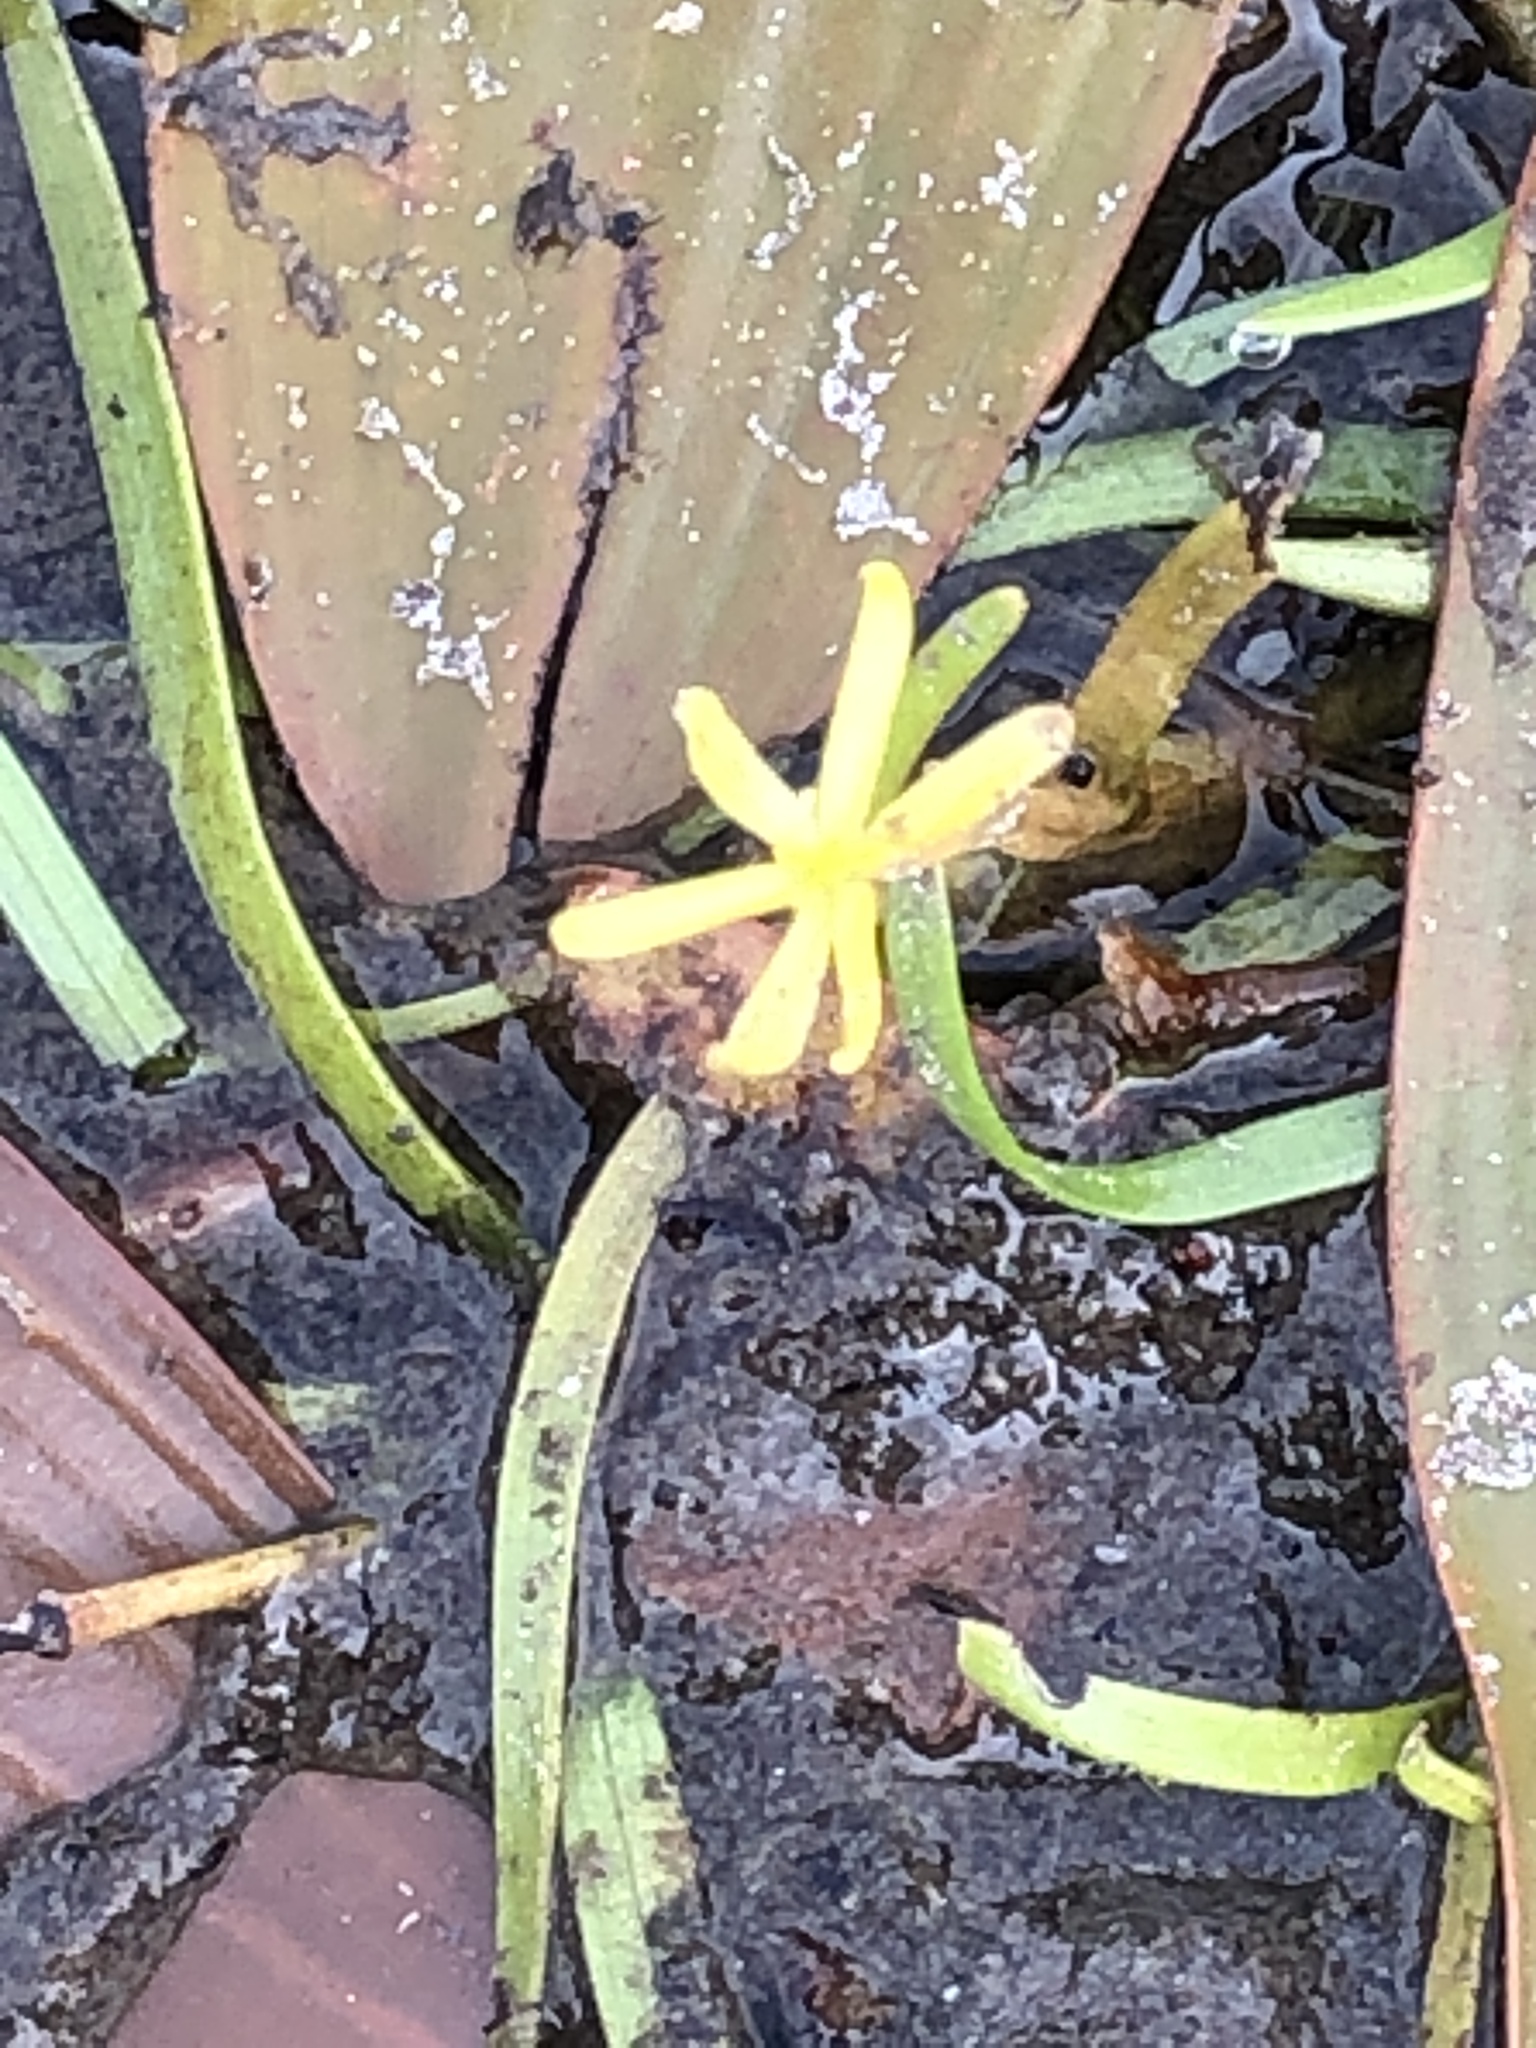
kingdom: Plantae
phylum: Tracheophyta
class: Liliopsida
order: Commelinales
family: Pontederiaceae
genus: Heteranthera
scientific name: Heteranthera dubia
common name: Grass-leaved mud plantain
